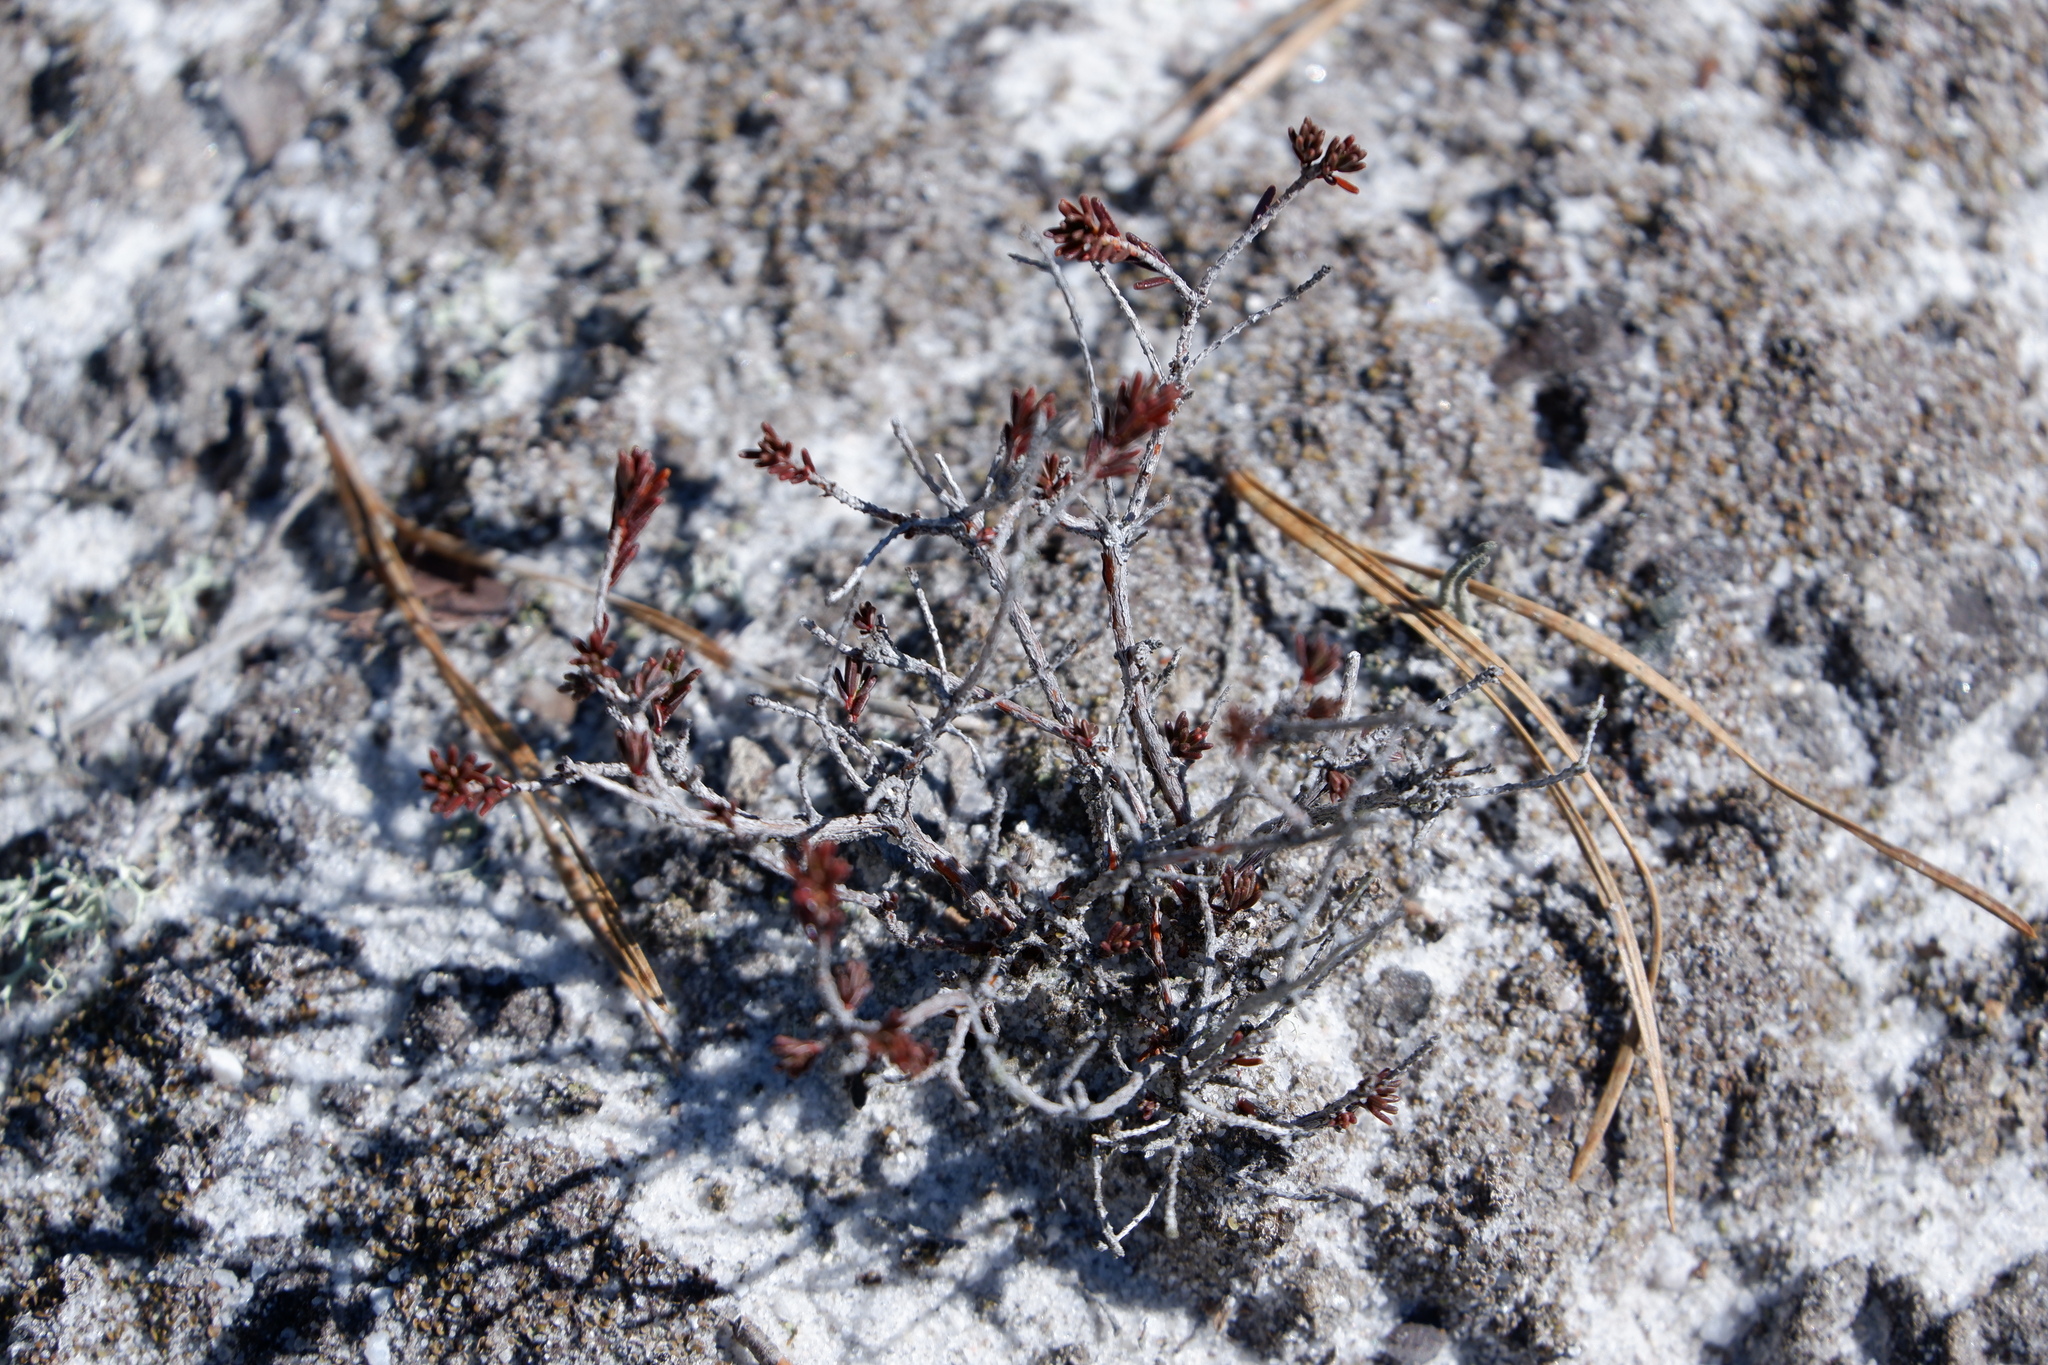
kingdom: Plantae
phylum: Tracheophyta
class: Magnoliopsida
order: Ericales
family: Ericaceae
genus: Corema
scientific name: Corema conradii
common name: Broom-crowberry
